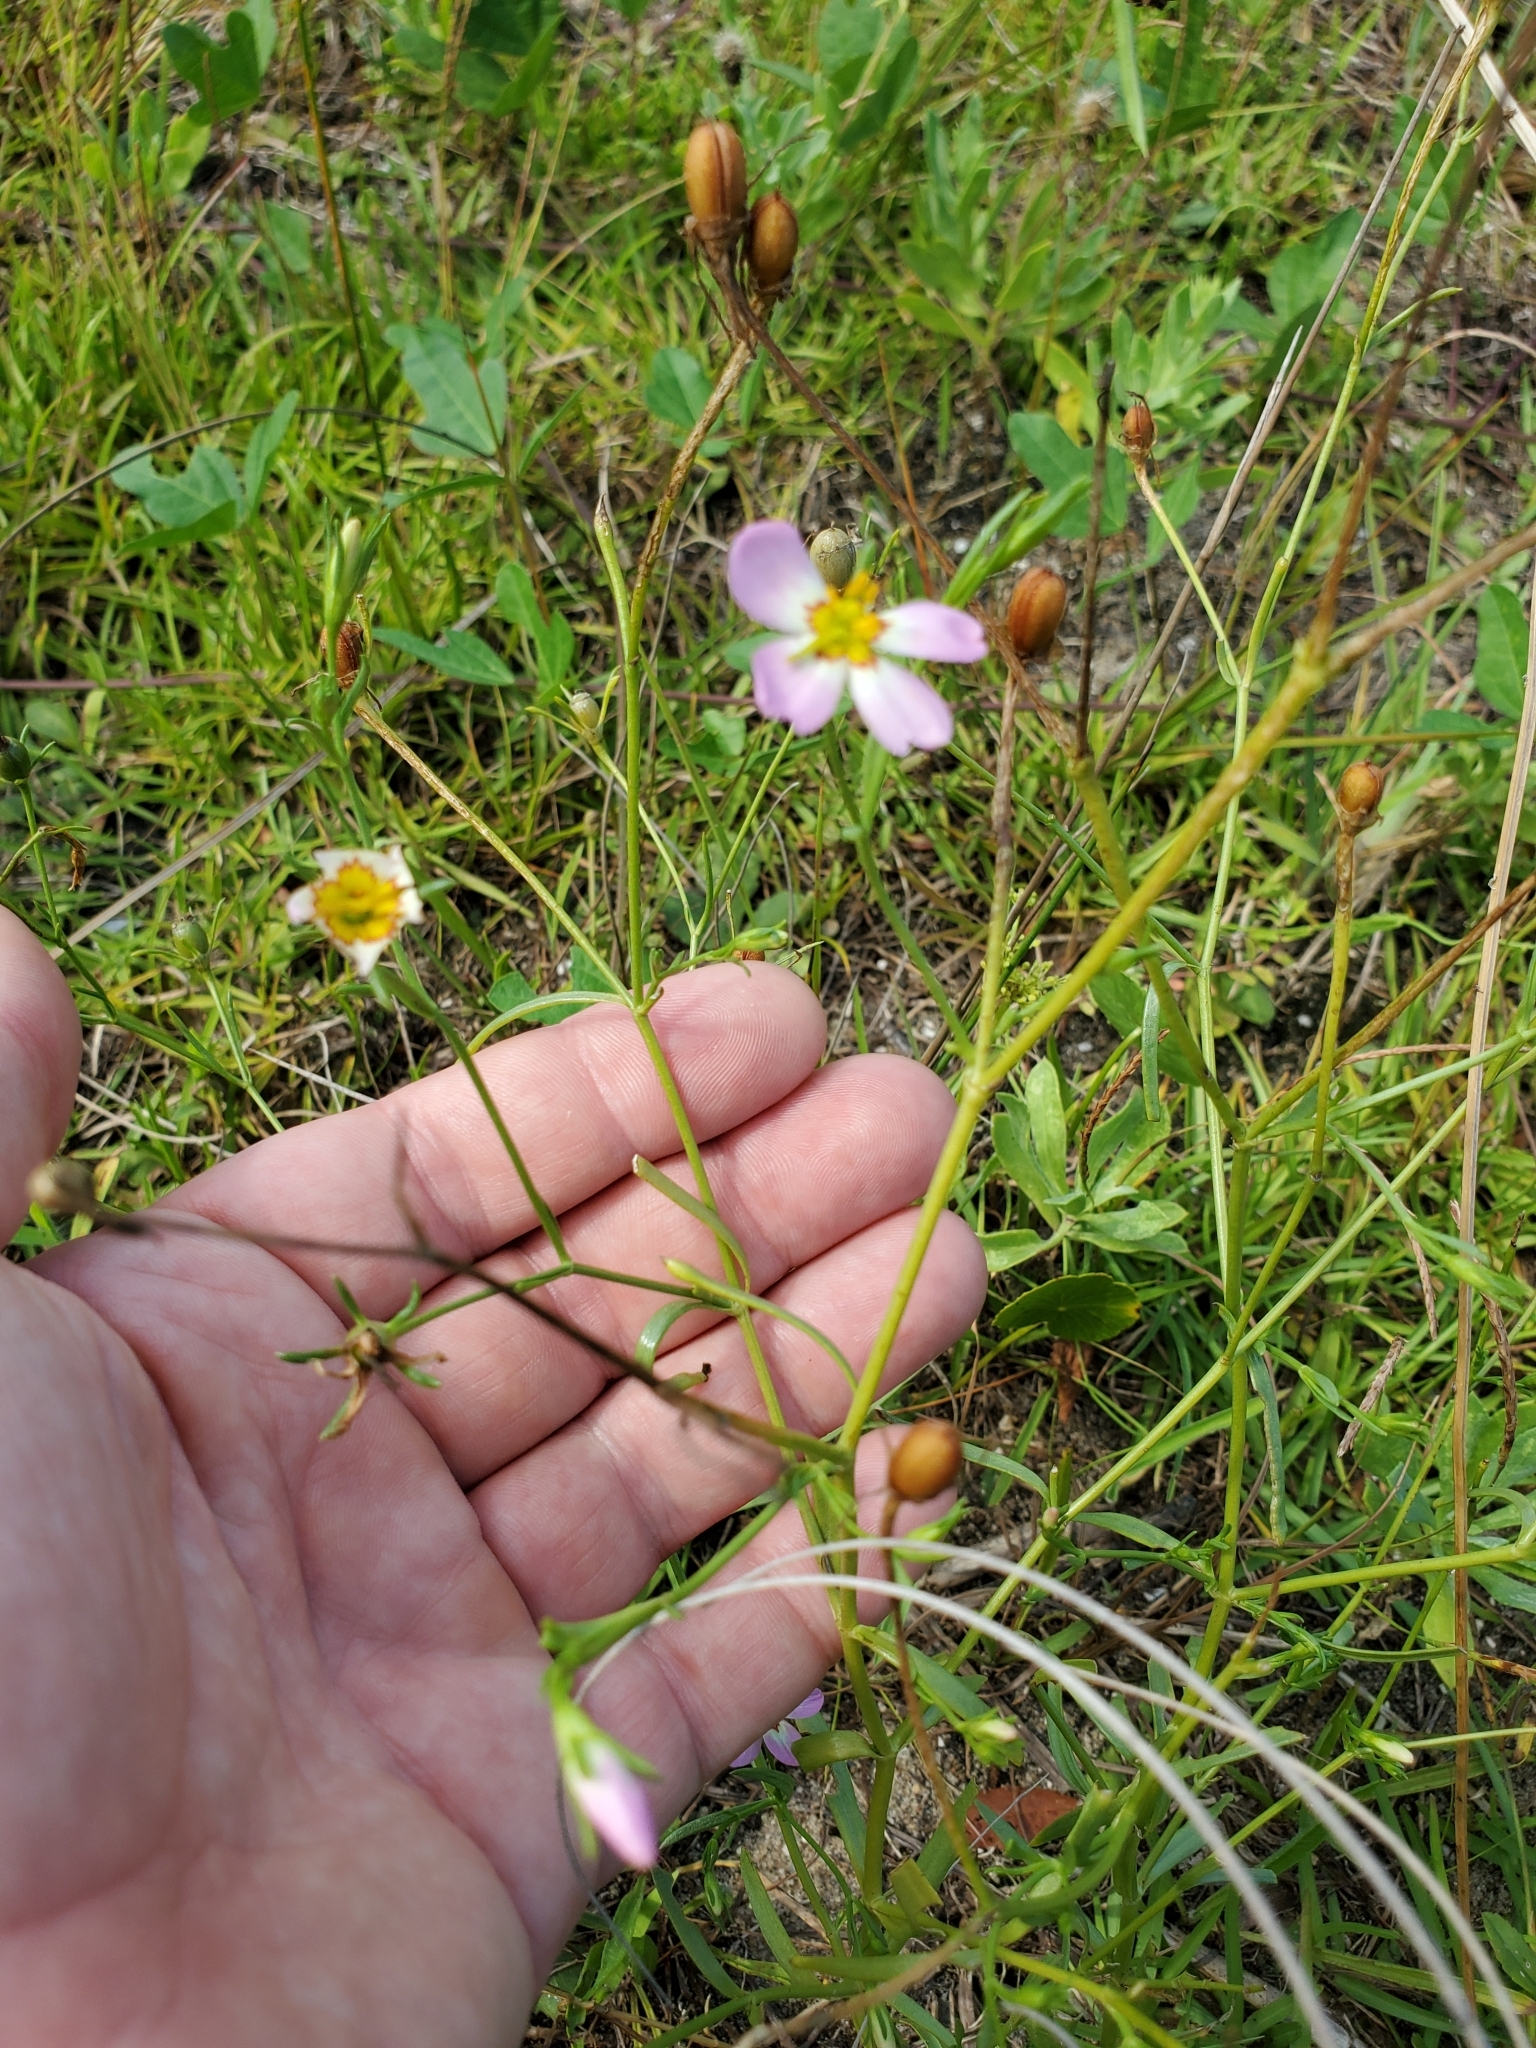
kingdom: Plantae
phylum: Tracheophyta
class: Magnoliopsida
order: Gentianales
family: Gentianaceae
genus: Sabatia
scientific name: Sabatia stellaris
